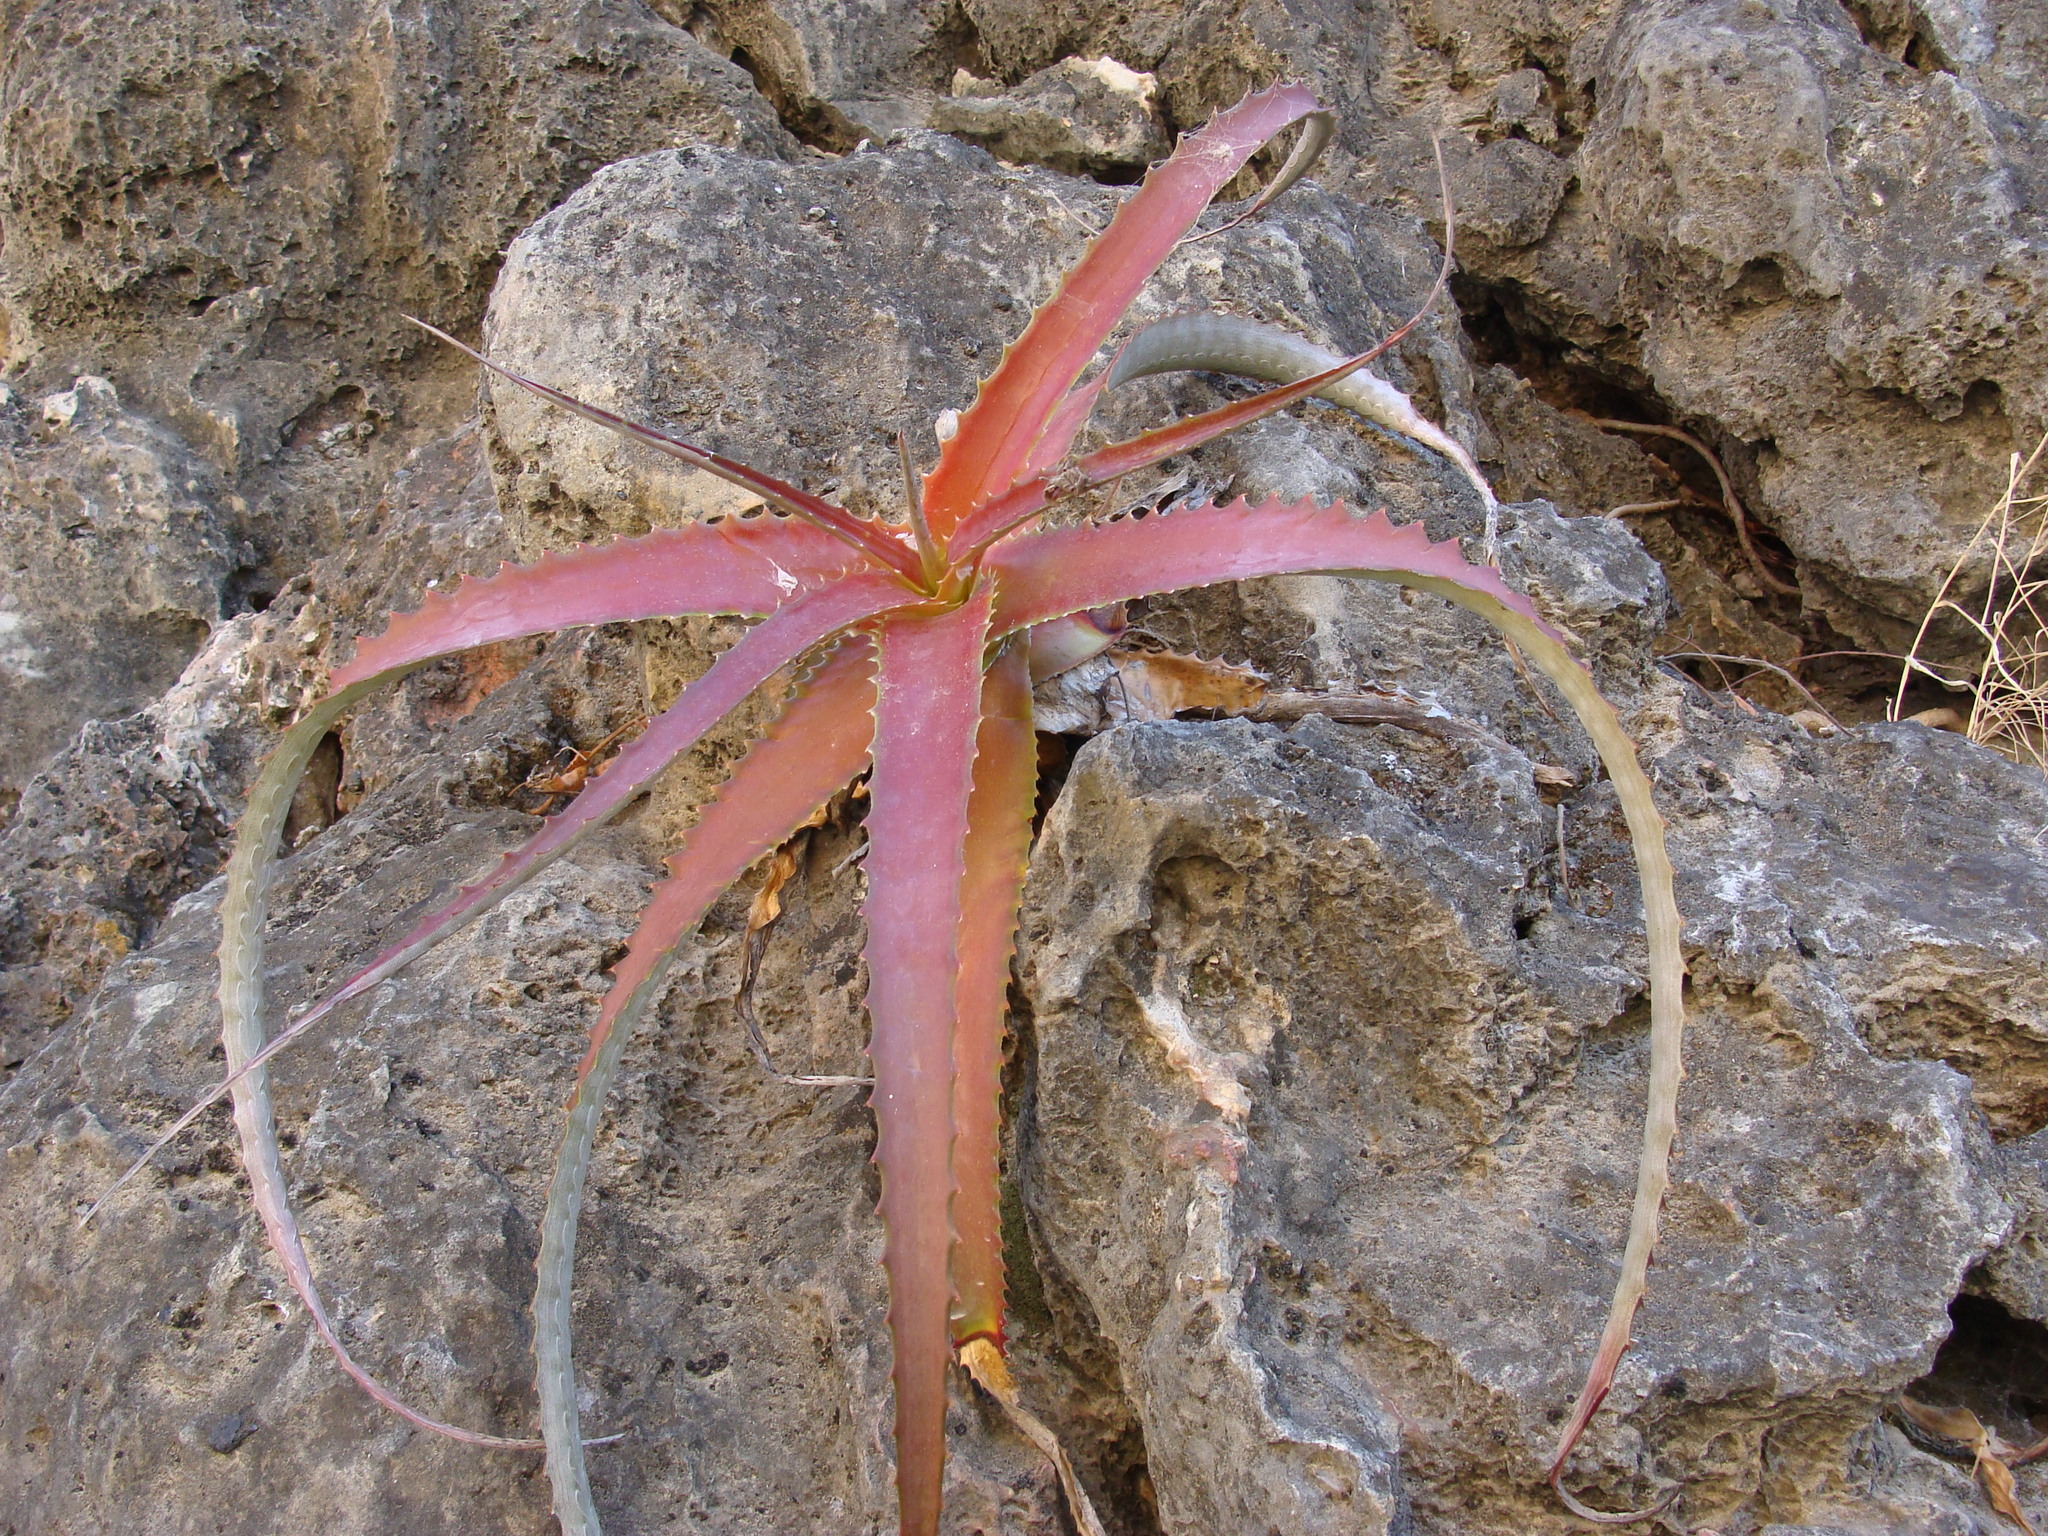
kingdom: Plantae
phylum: Tracheophyta
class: Liliopsida
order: Poales
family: Bromeliaceae
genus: Hechtia
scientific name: Hechtia rubicunda
